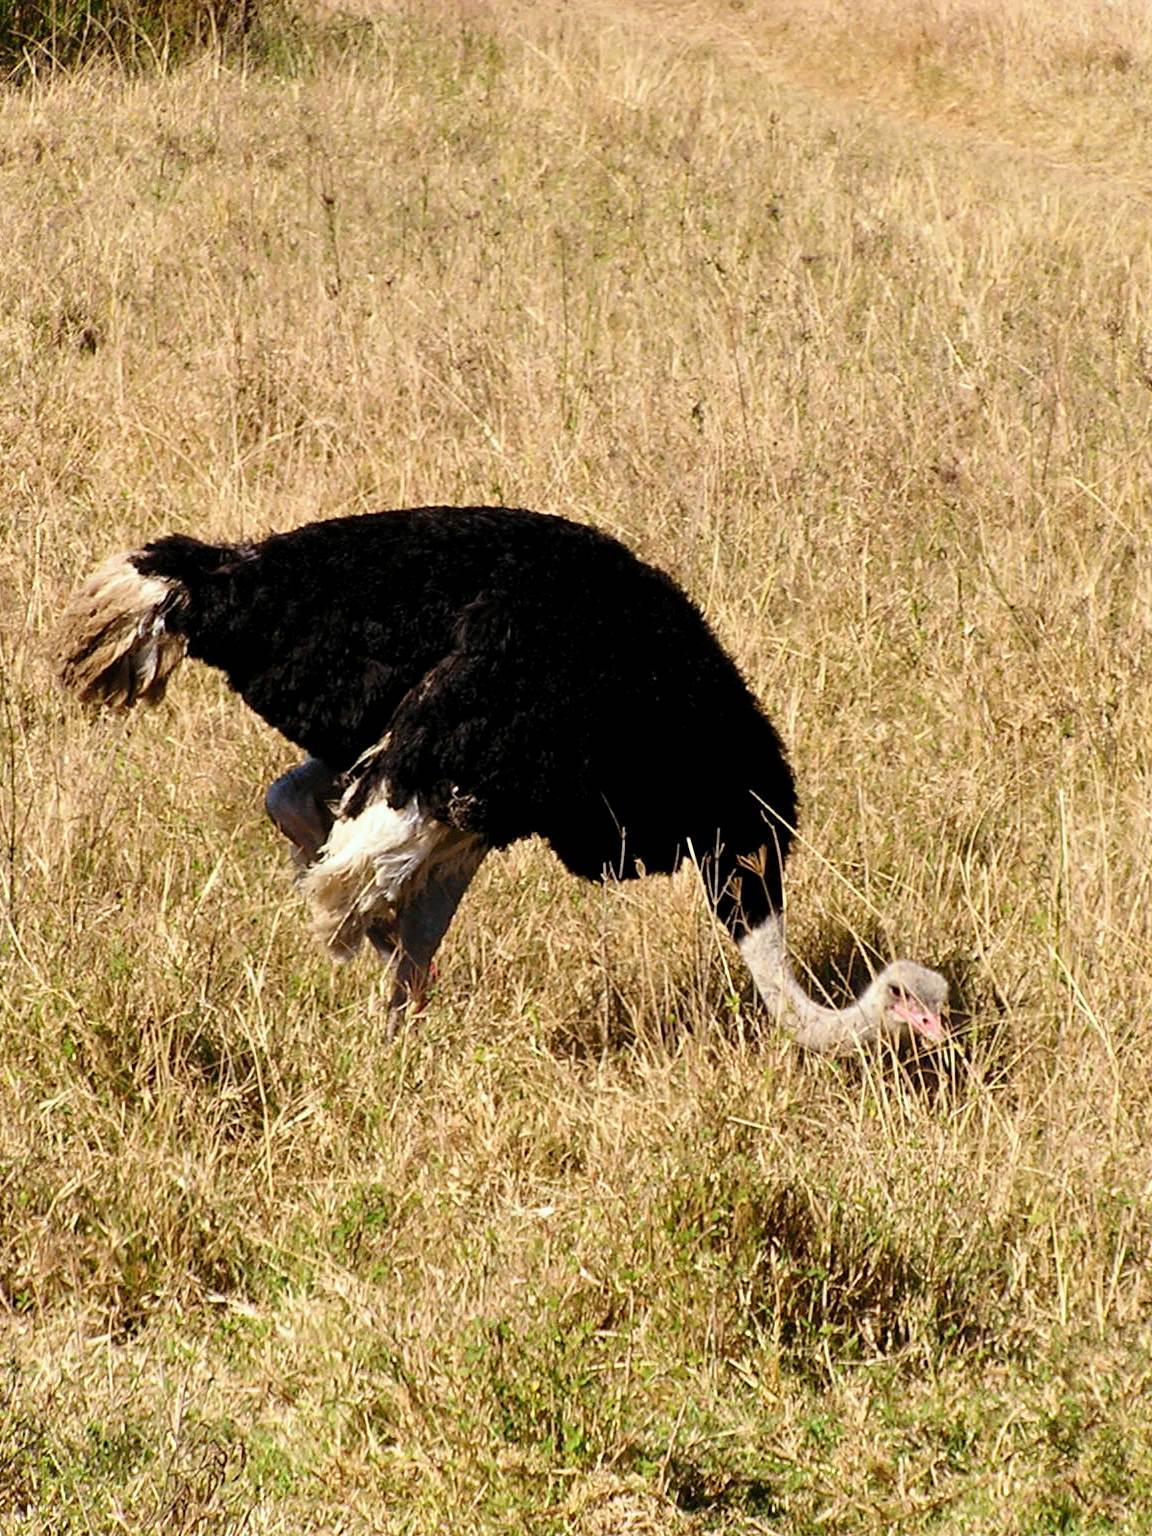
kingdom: Animalia
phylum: Chordata
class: Aves
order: Struthioniformes
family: Struthionidae
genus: Struthio
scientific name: Struthio camelus
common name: Common ostrich
